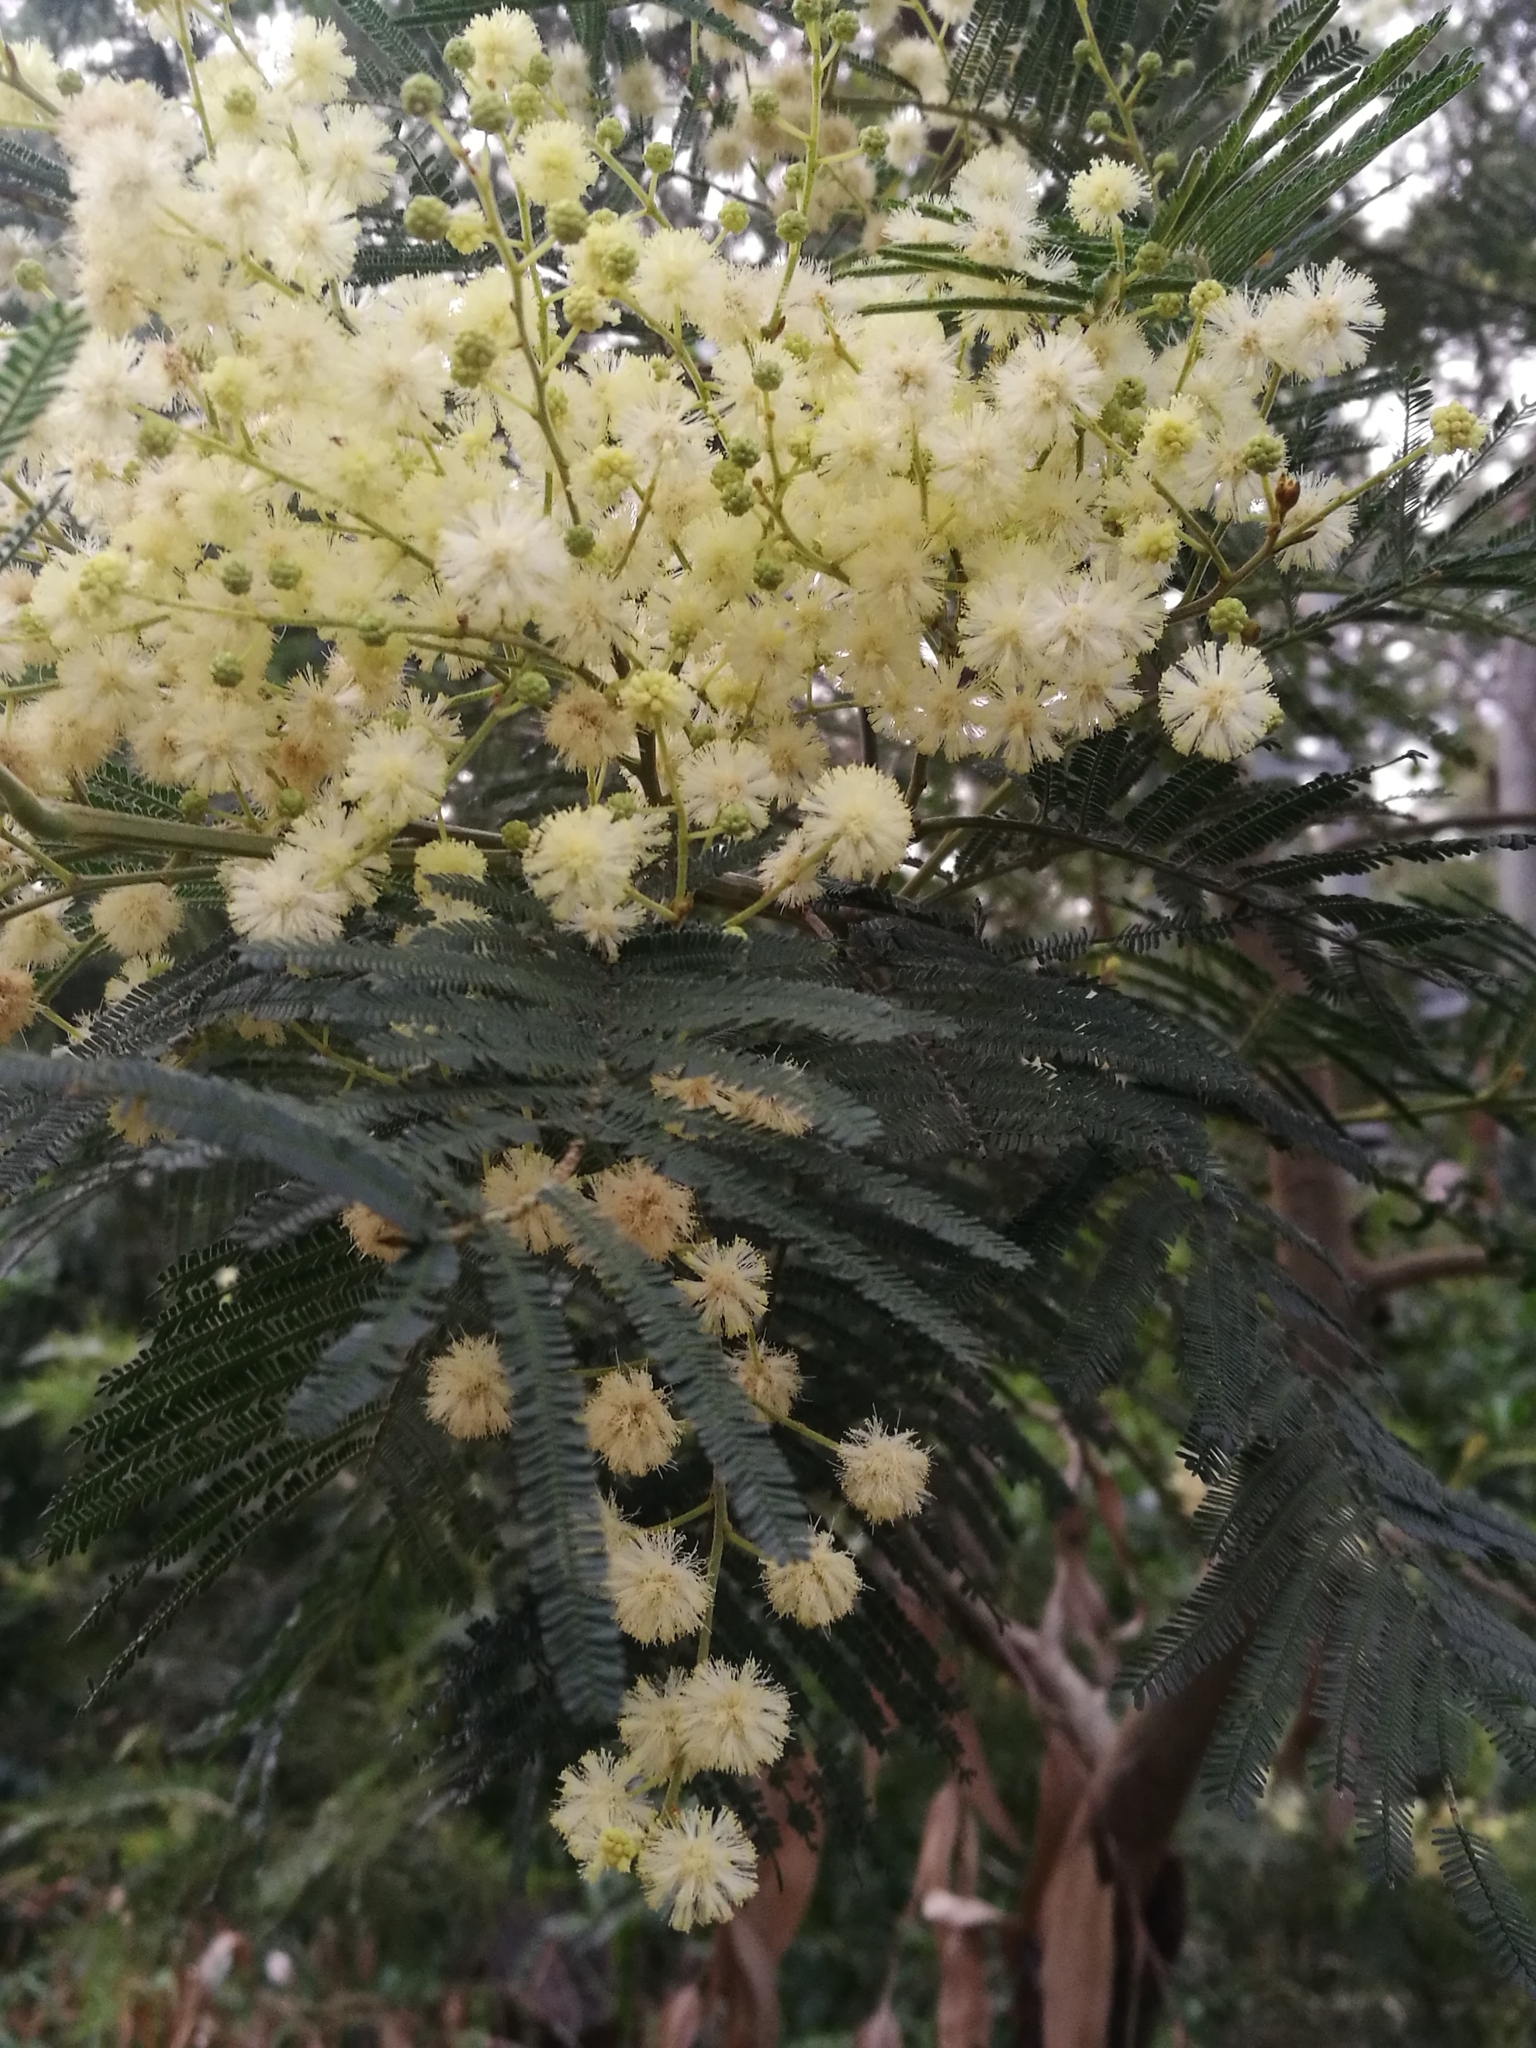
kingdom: Plantae
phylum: Tracheophyta
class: Magnoliopsida
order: Fabales
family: Fabaceae
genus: Acacia
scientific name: Acacia mearnsii
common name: Black wattle
